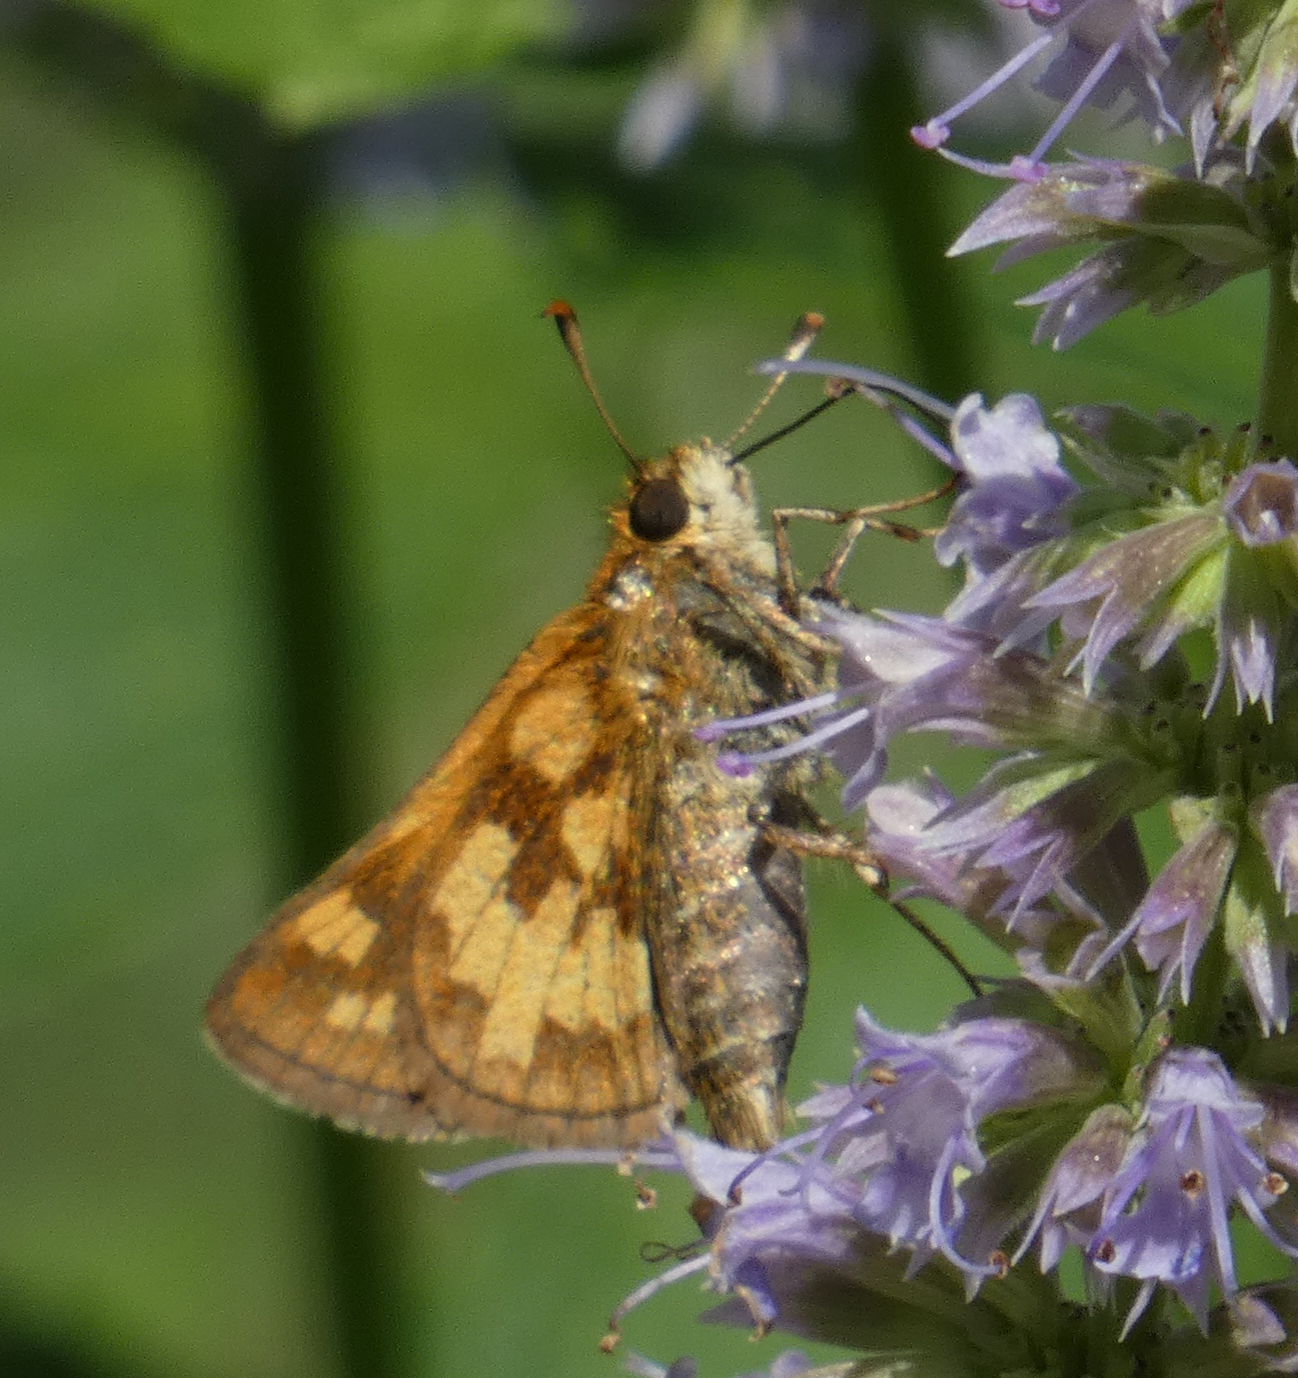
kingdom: Animalia
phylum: Arthropoda
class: Insecta
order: Lepidoptera
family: Hesperiidae
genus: Polites
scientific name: Polites coras
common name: Peck's skipper
